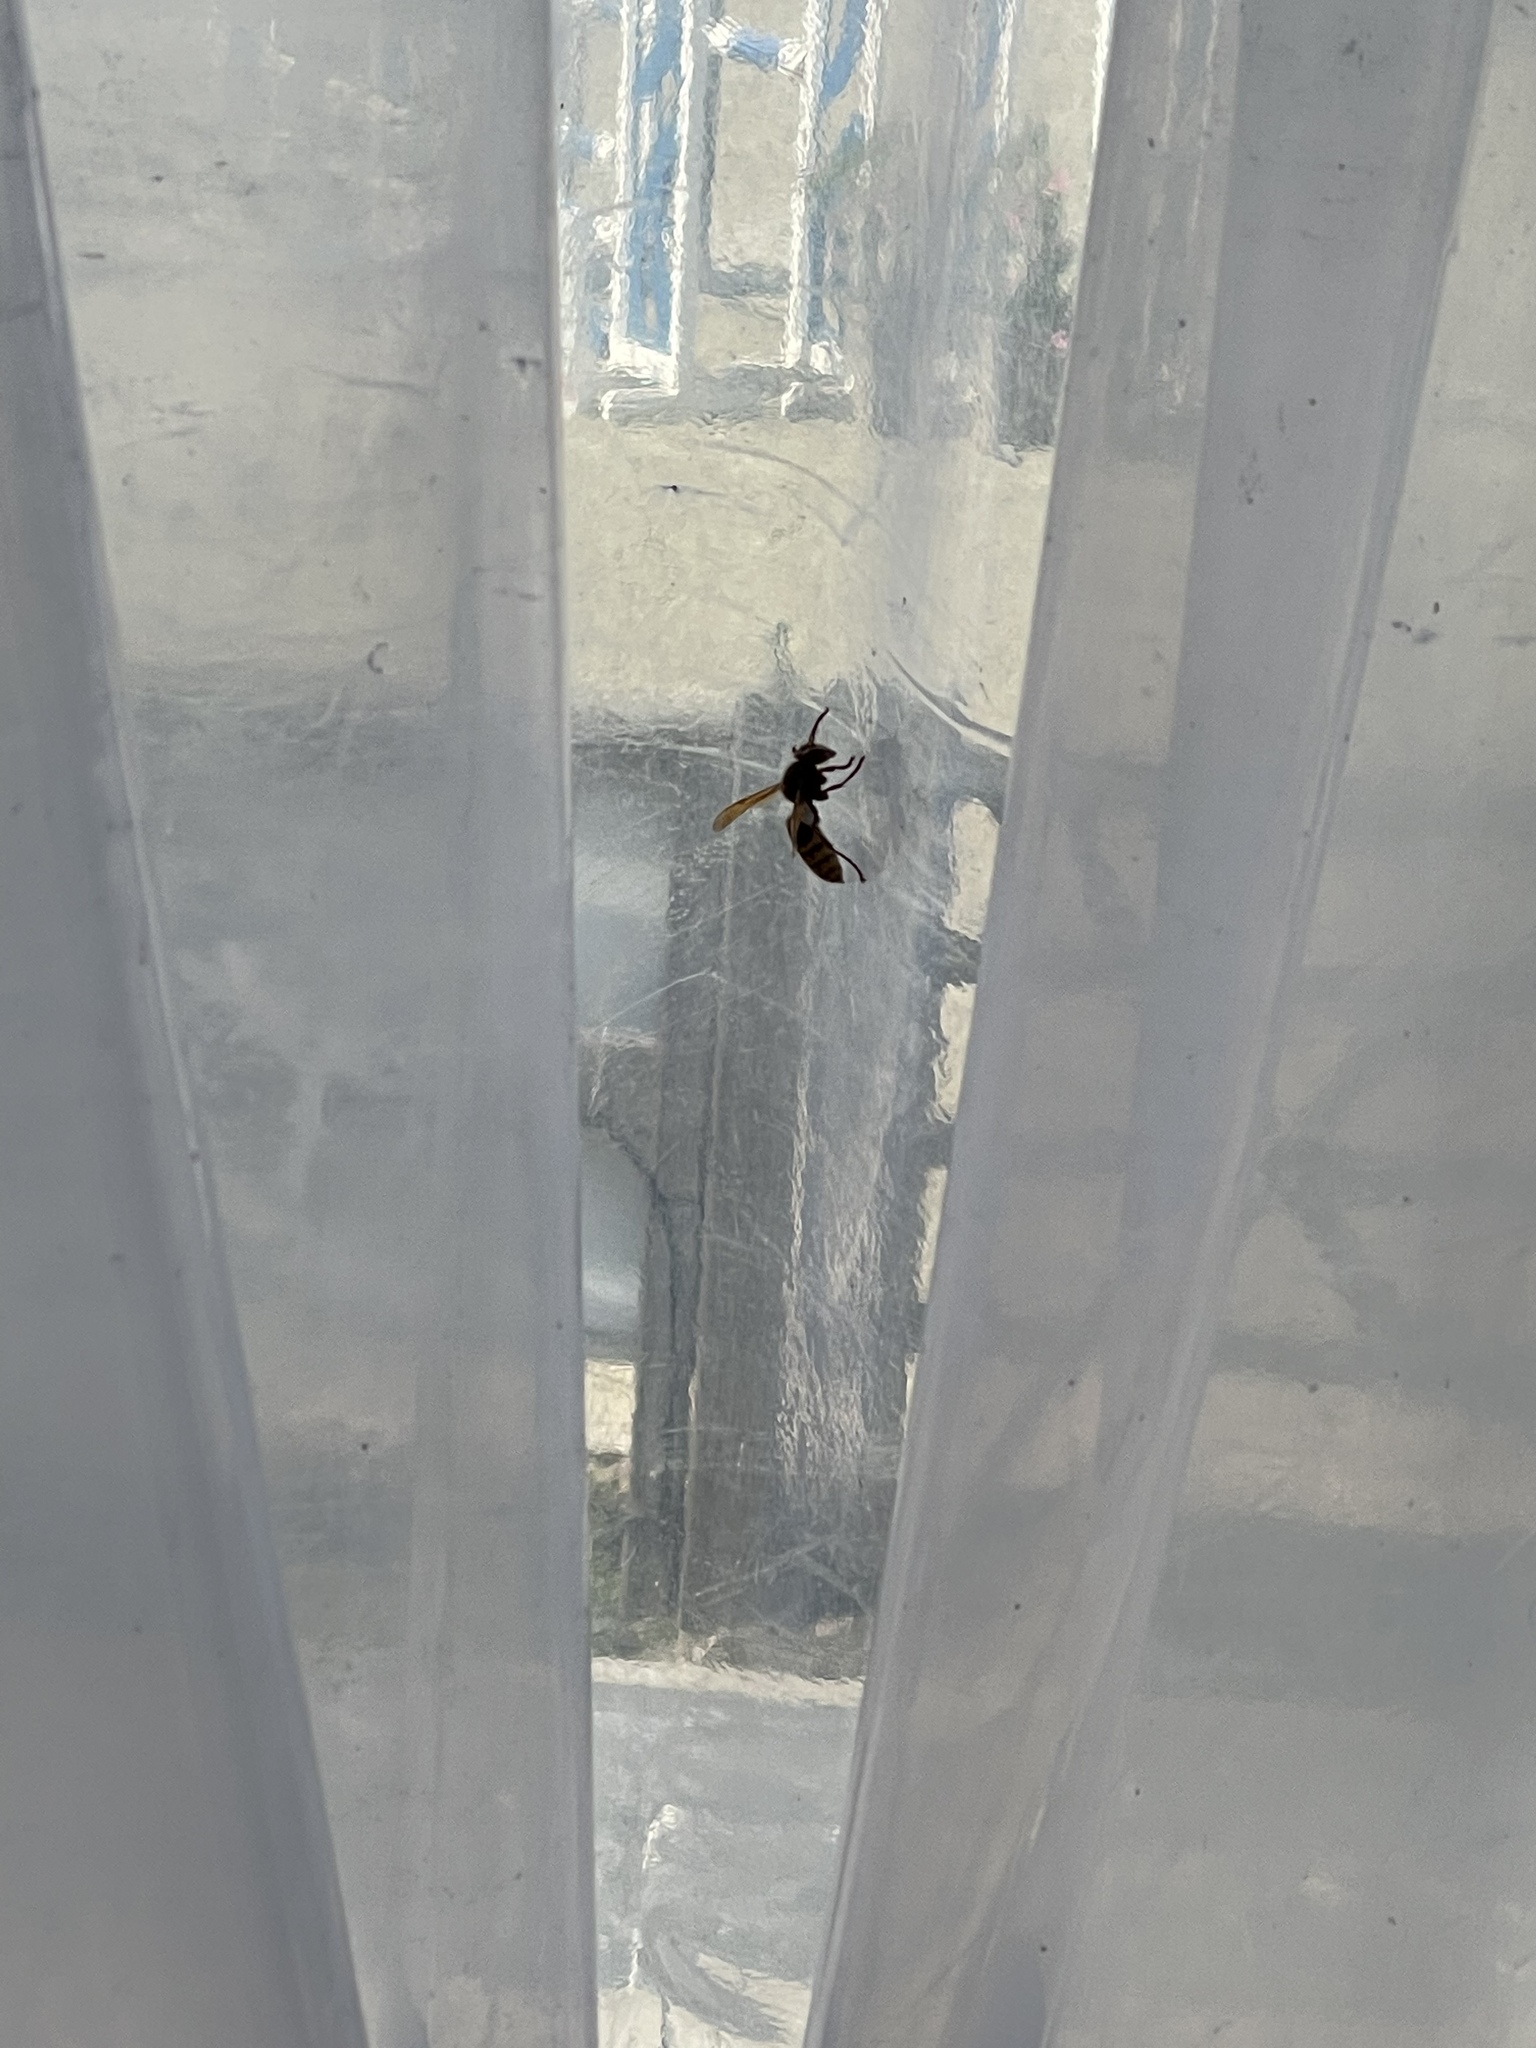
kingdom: Animalia
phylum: Arthropoda
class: Insecta
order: Hymenoptera
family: Vespidae
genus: Vespa
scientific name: Vespa crabro
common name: Hornet
